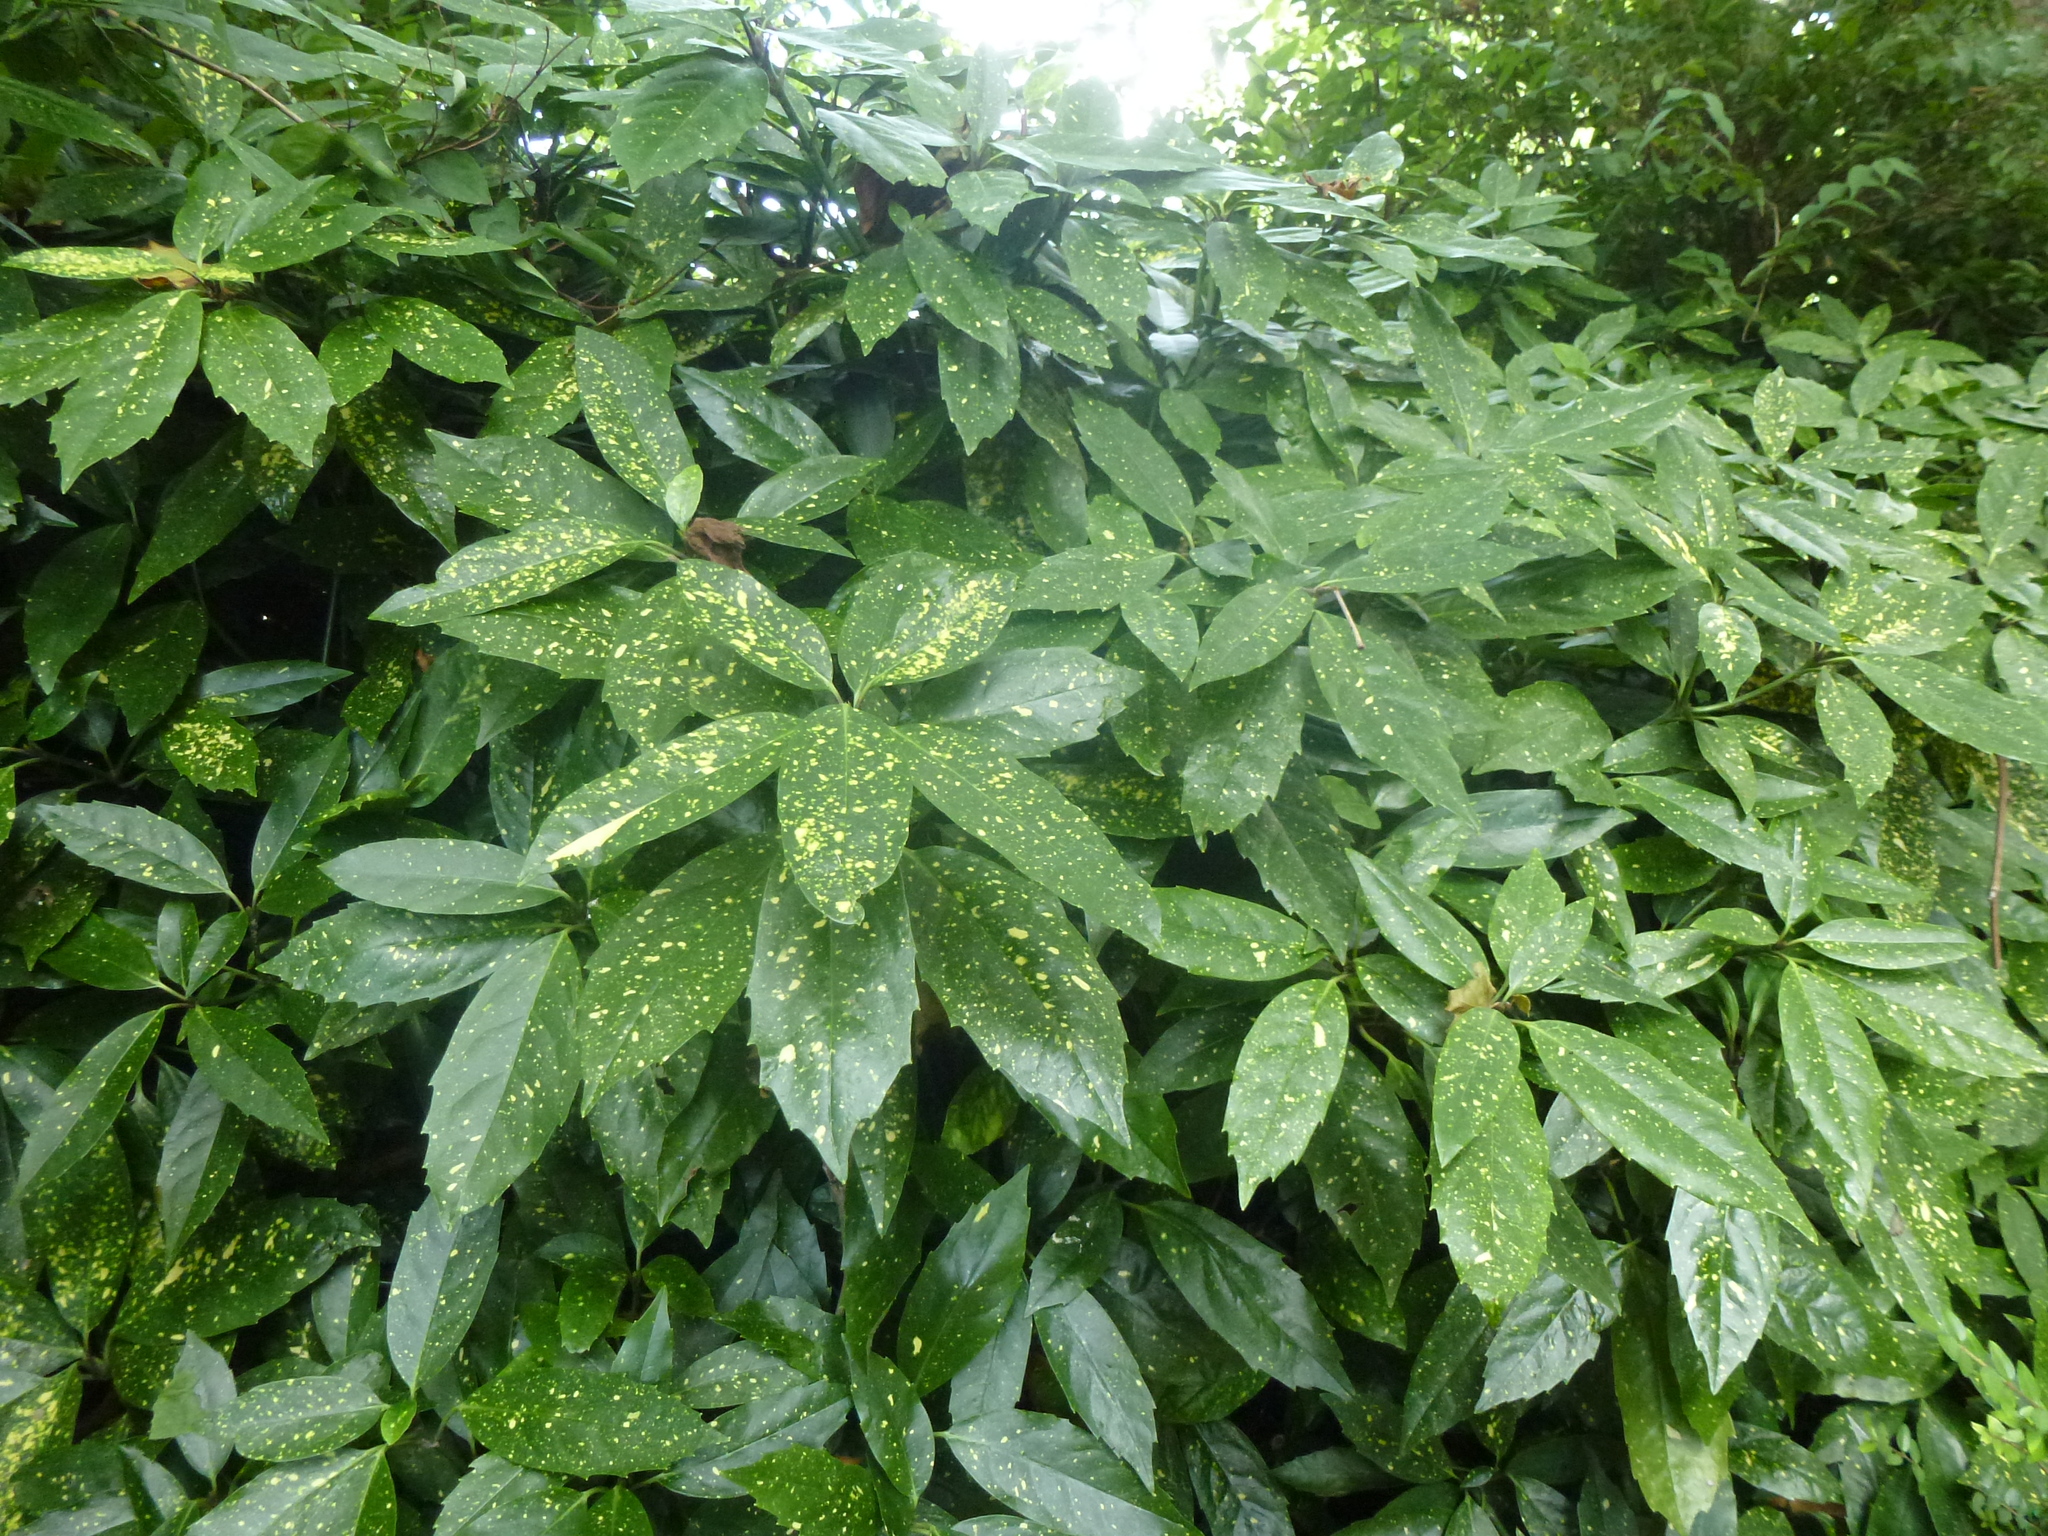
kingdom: Plantae
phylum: Tracheophyta
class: Magnoliopsida
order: Garryales
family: Garryaceae
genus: Aucuba
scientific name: Aucuba japonica
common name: Spotted-laurel
